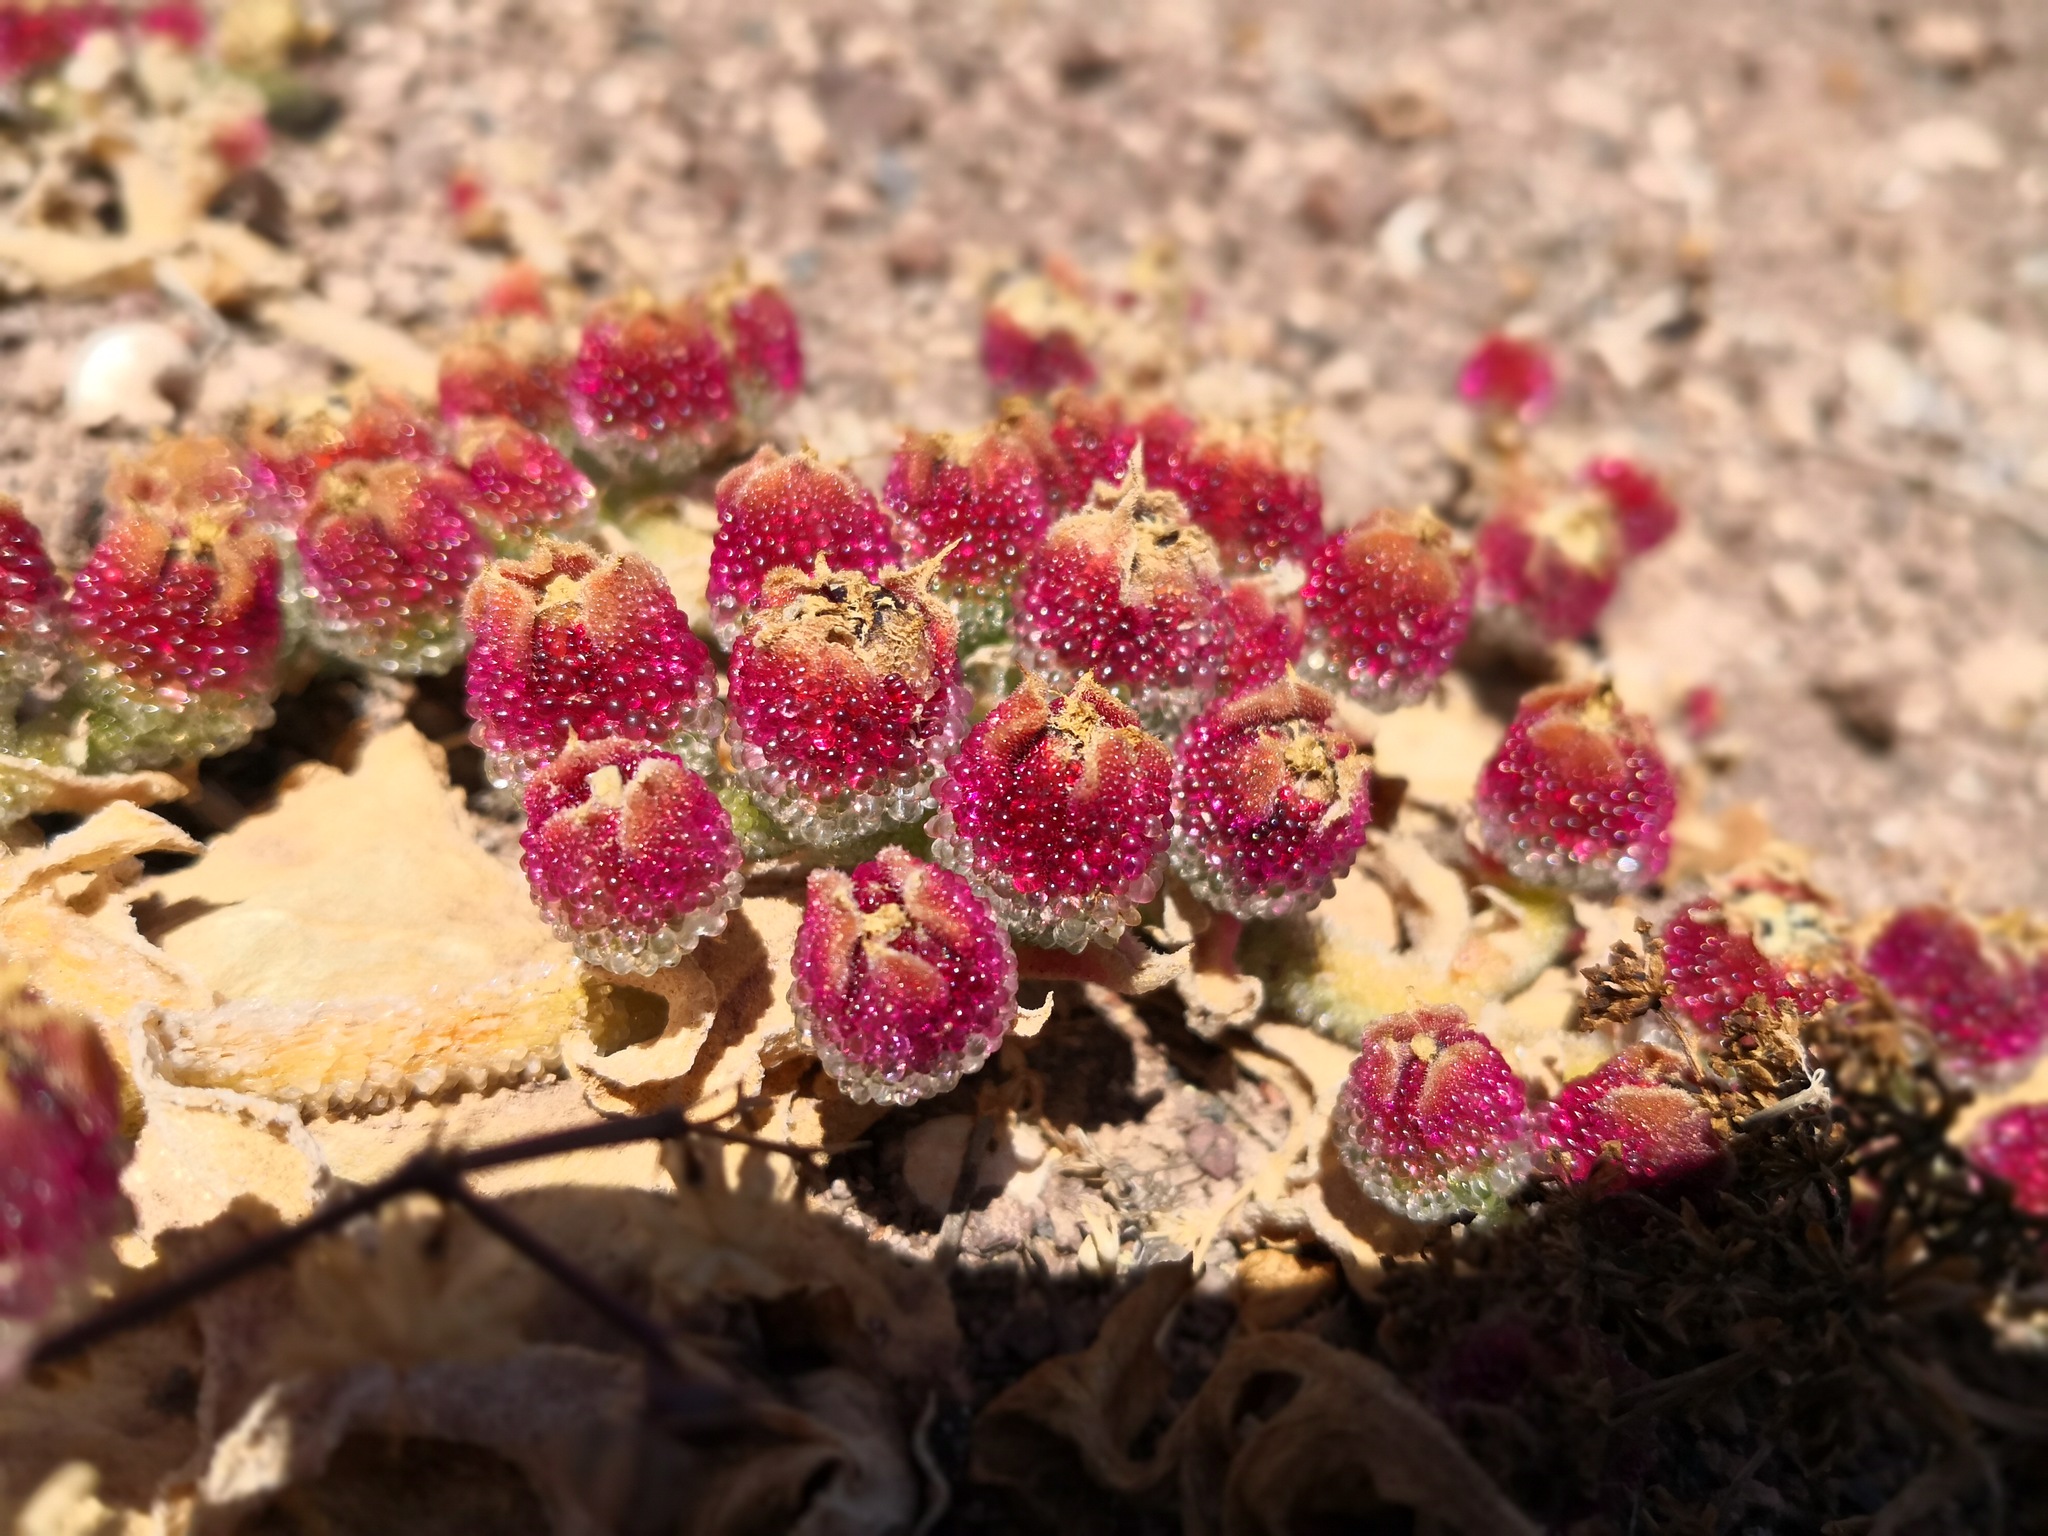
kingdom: Plantae
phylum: Tracheophyta
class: Magnoliopsida
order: Caryophyllales
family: Aizoaceae
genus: Mesembryanthemum
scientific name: Mesembryanthemum crystallinum
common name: Common iceplant
